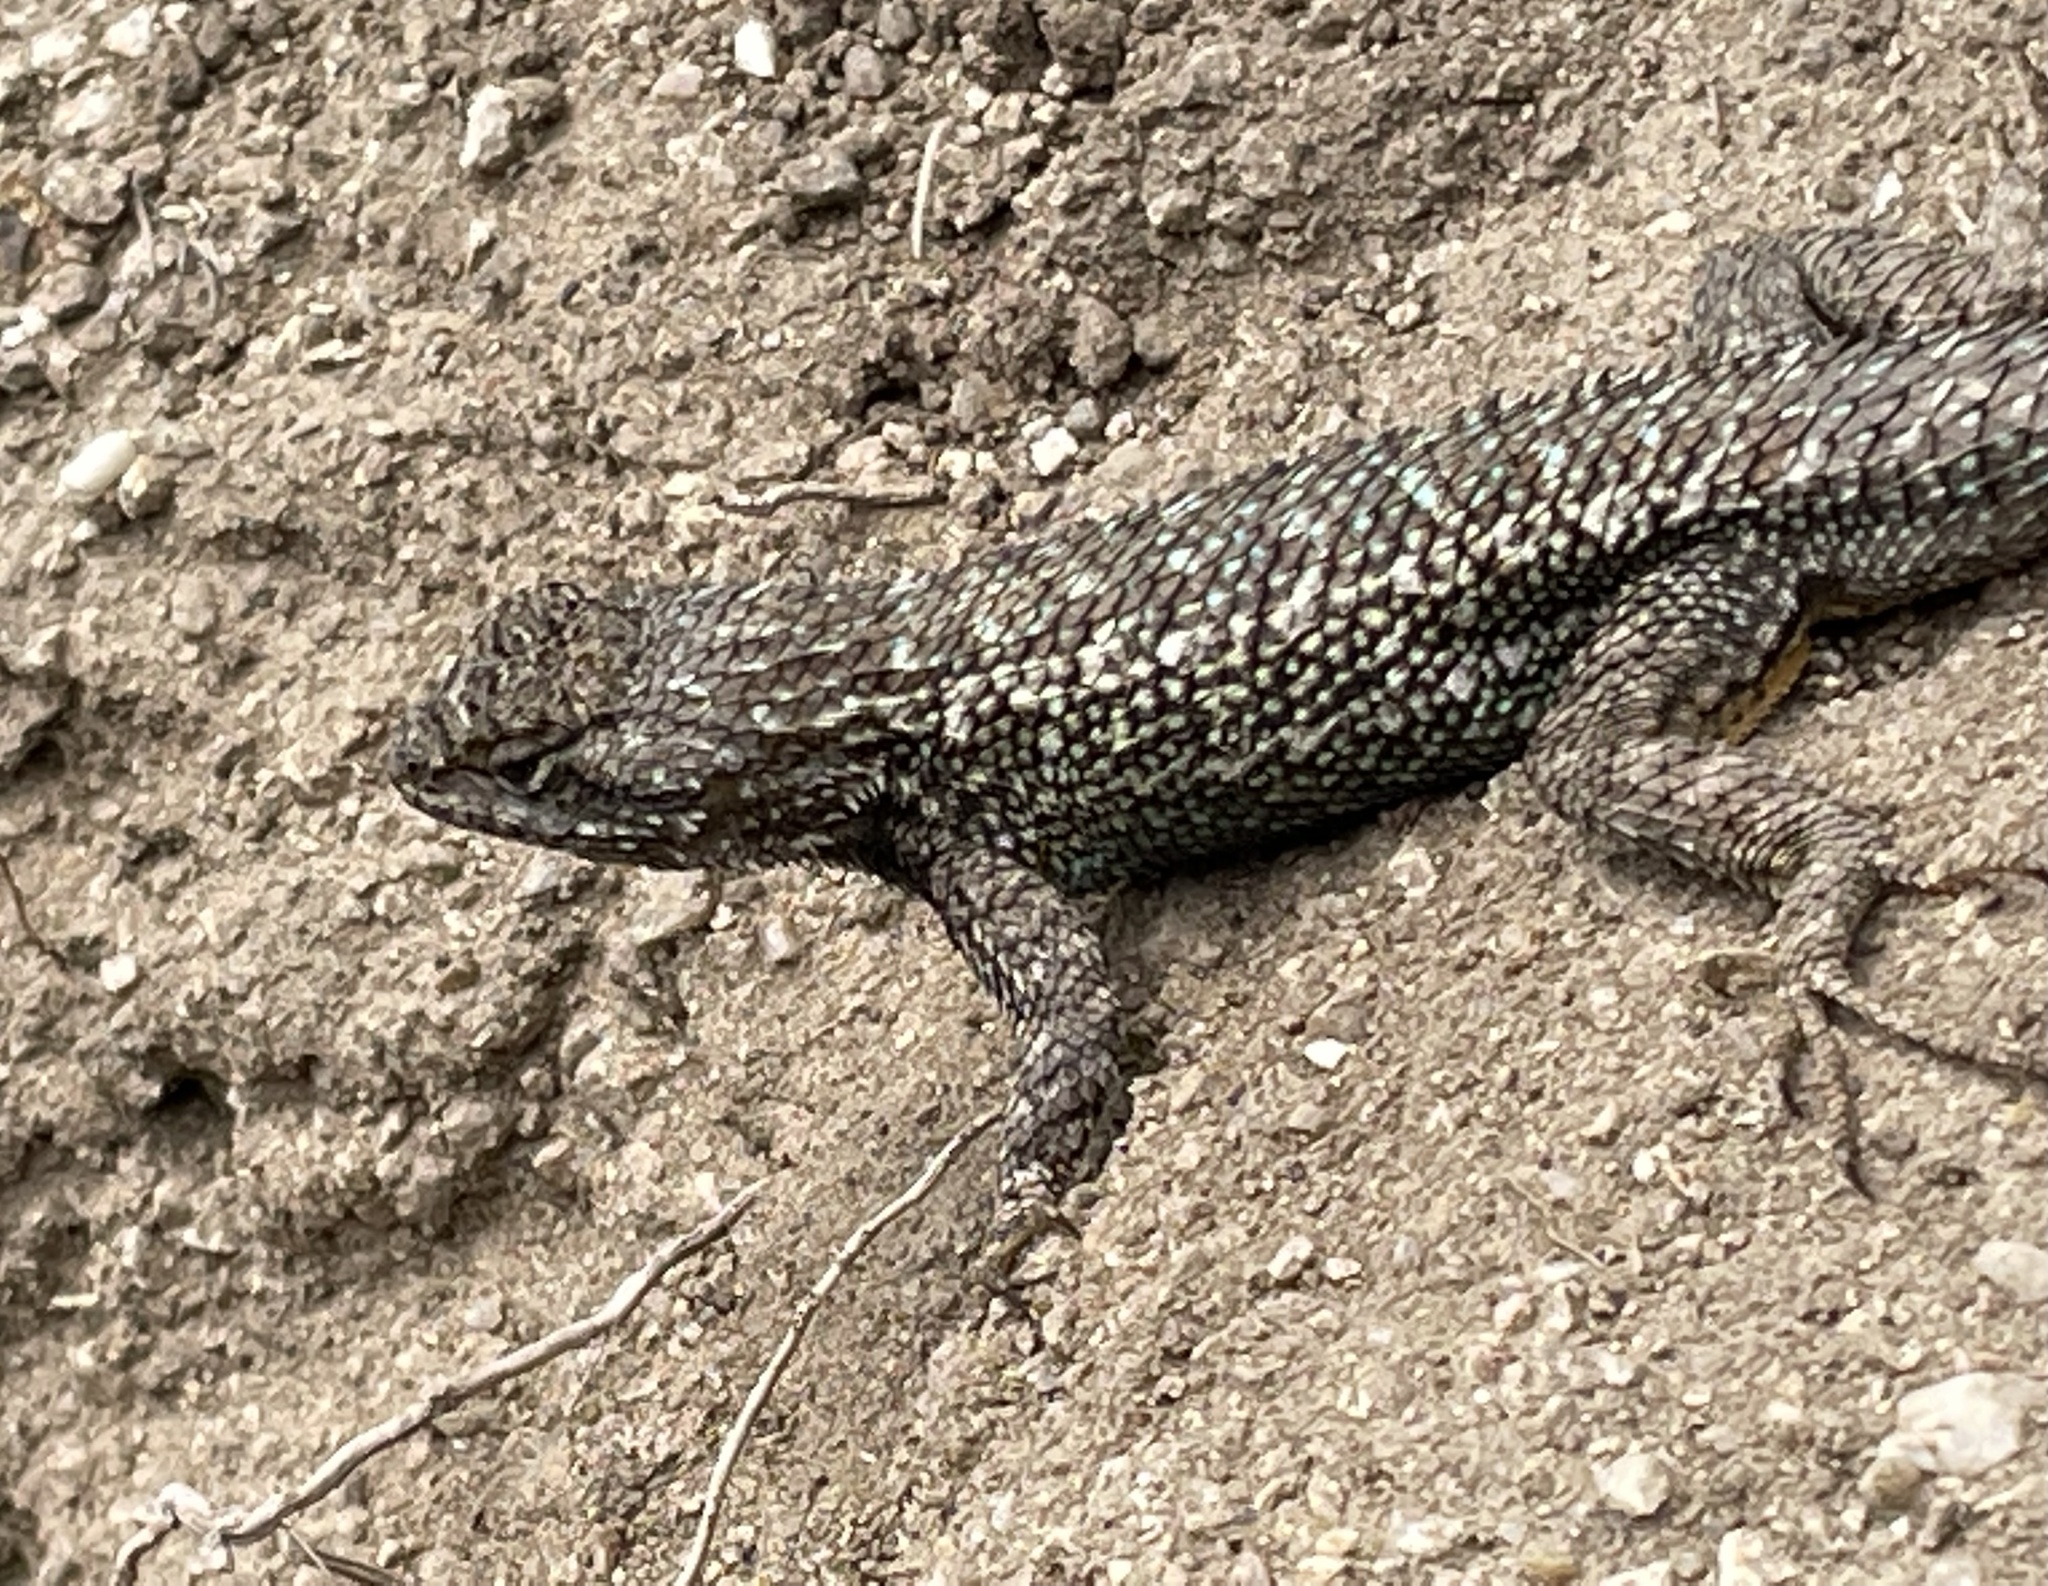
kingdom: Animalia
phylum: Chordata
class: Squamata
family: Phrynosomatidae
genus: Sceloporus
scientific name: Sceloporus occidentalis
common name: Western fence lizard
